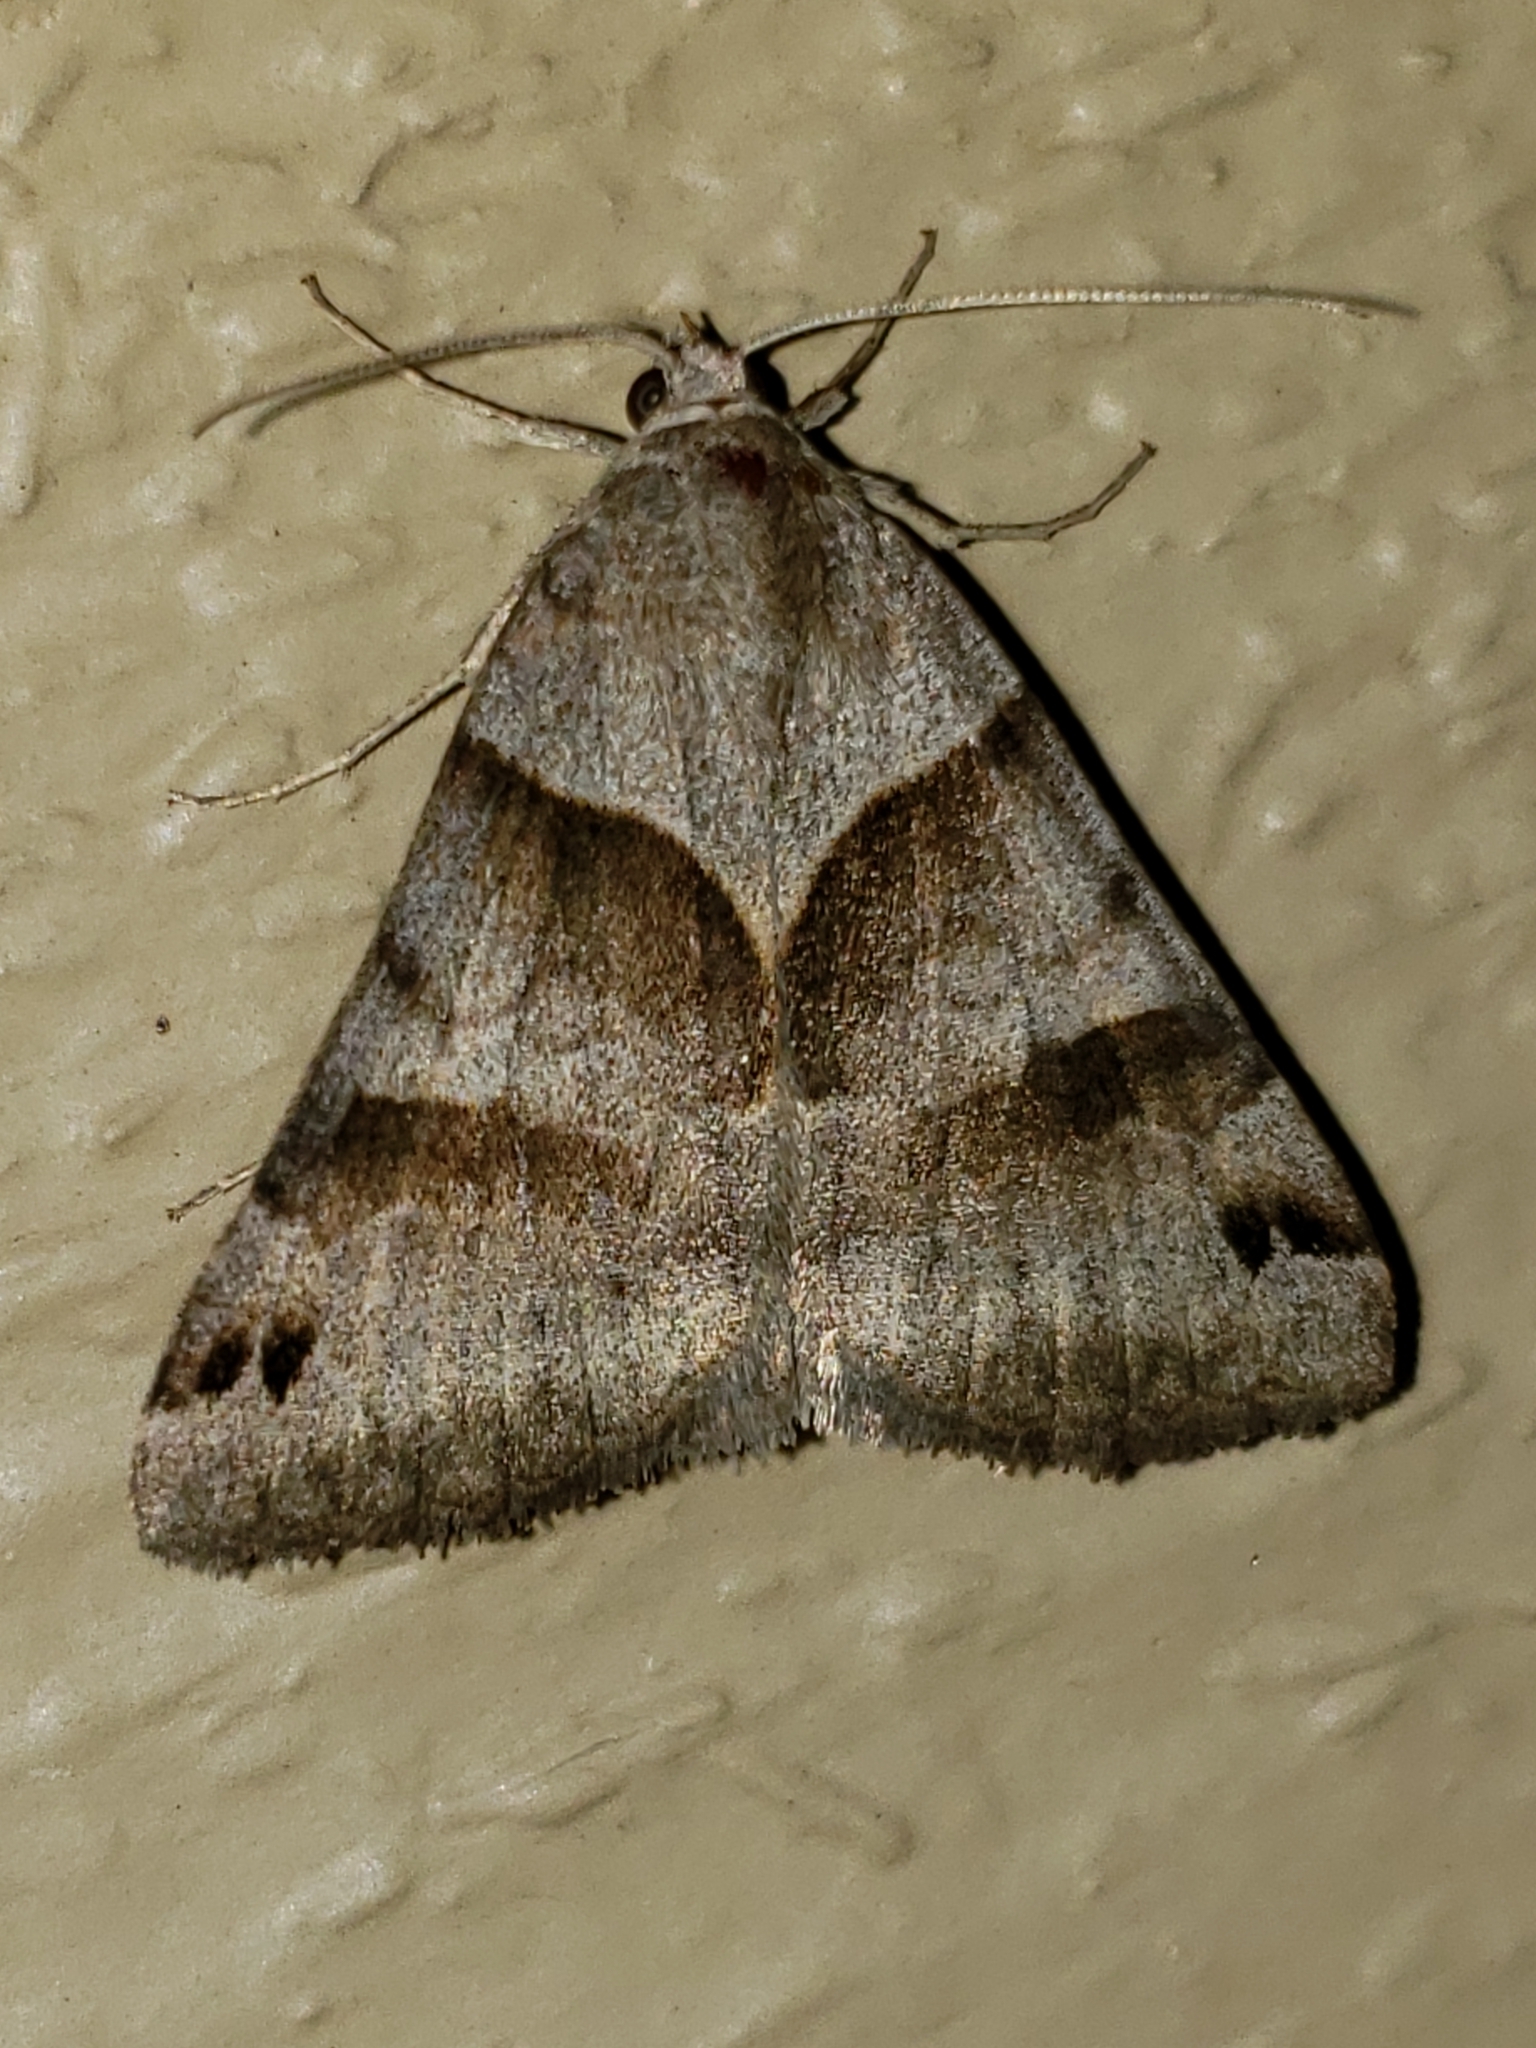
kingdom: Animalia
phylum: Arthropoda
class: Insecta
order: Lepidoptera
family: Erebidae
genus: Caenurgina
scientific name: Caenurgina crassiuscula
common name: Double-barred
